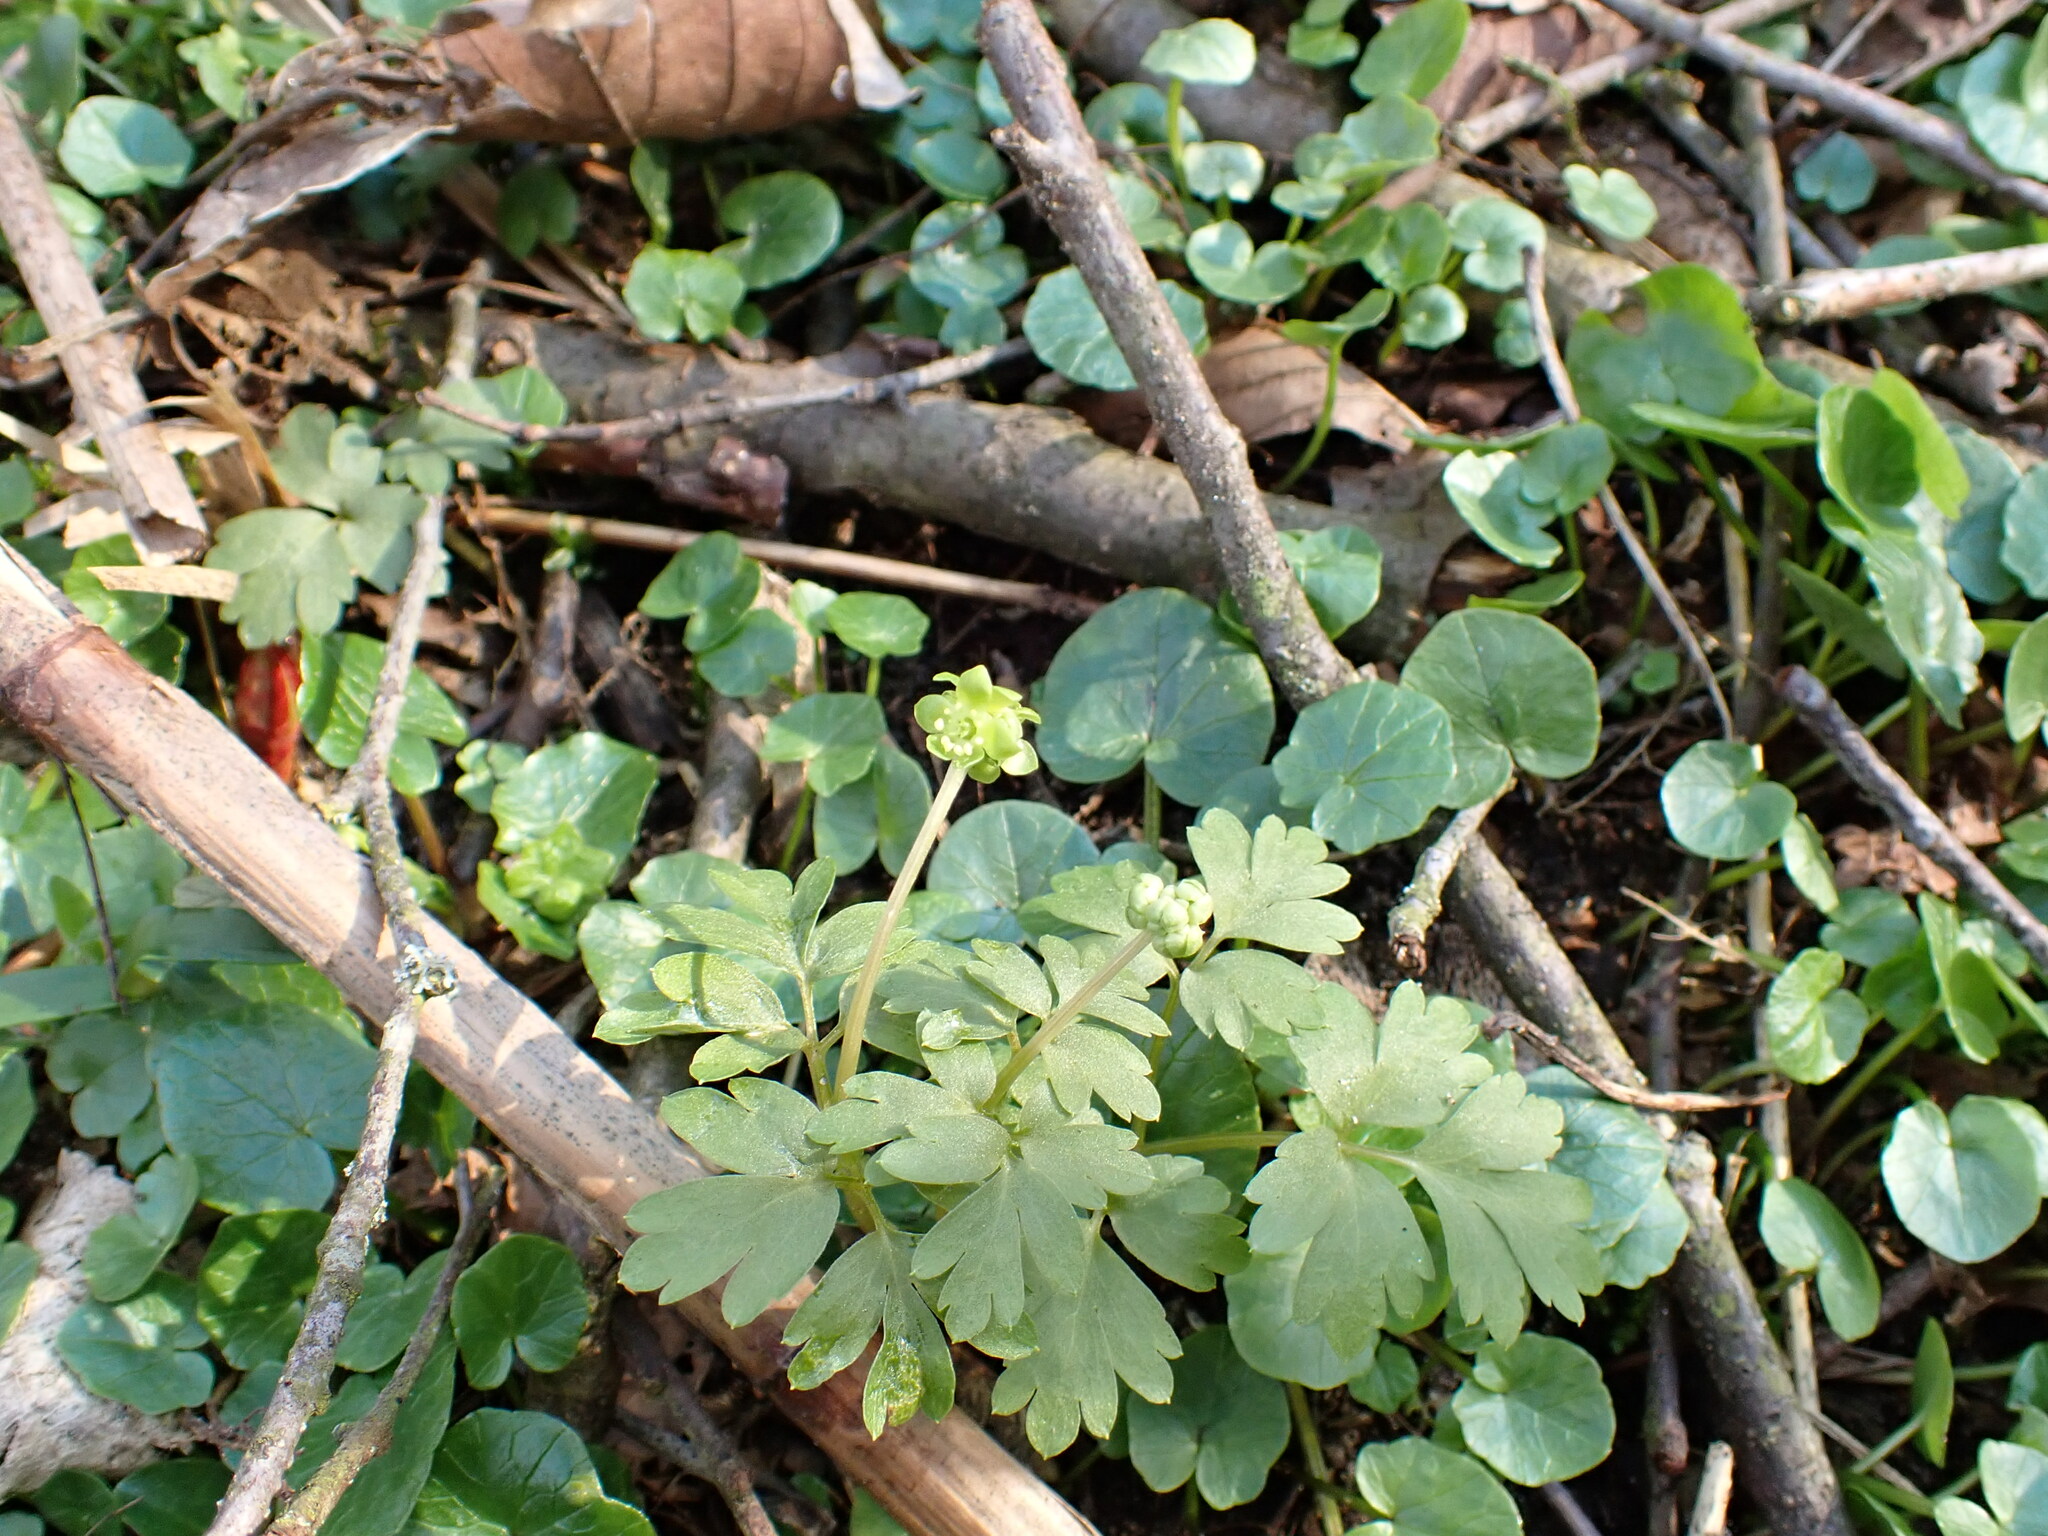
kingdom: Plantae
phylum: Tracheophyta
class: Magnoliopsida
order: Dipsacales
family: Viburnaceae
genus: Adoxa
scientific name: Adoxa moschatellina
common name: Moschatel
